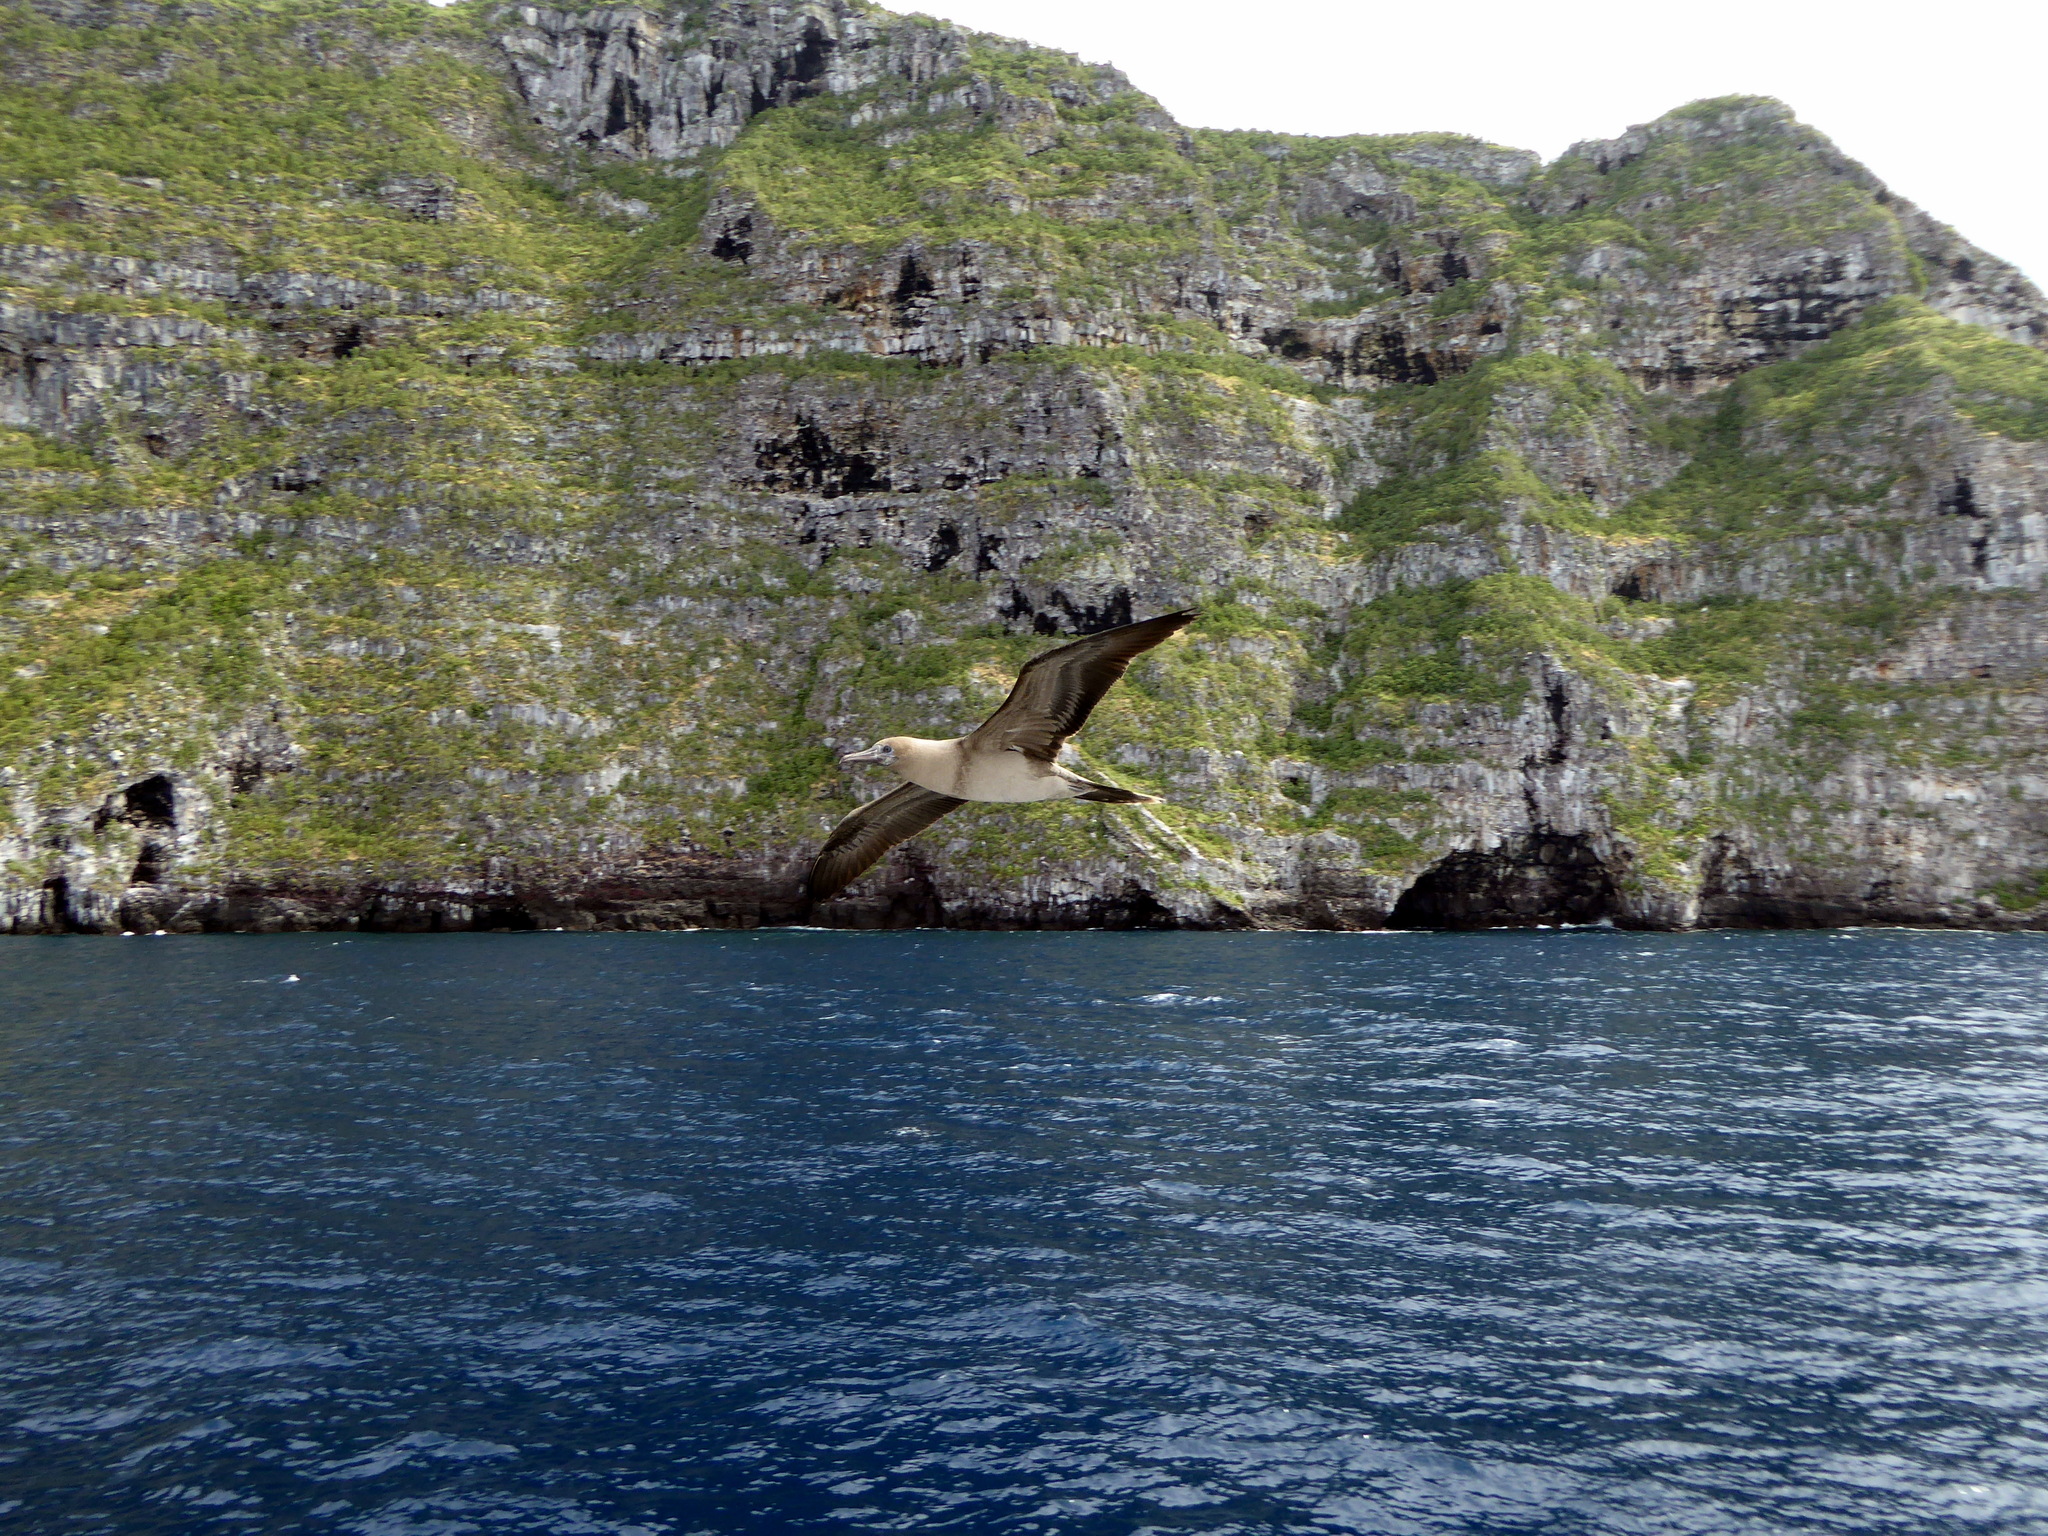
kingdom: Animalia
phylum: Chordata
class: Aves
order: Suliformes
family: Sulidae
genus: Sula
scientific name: Sula sula
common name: Red-footed booby
